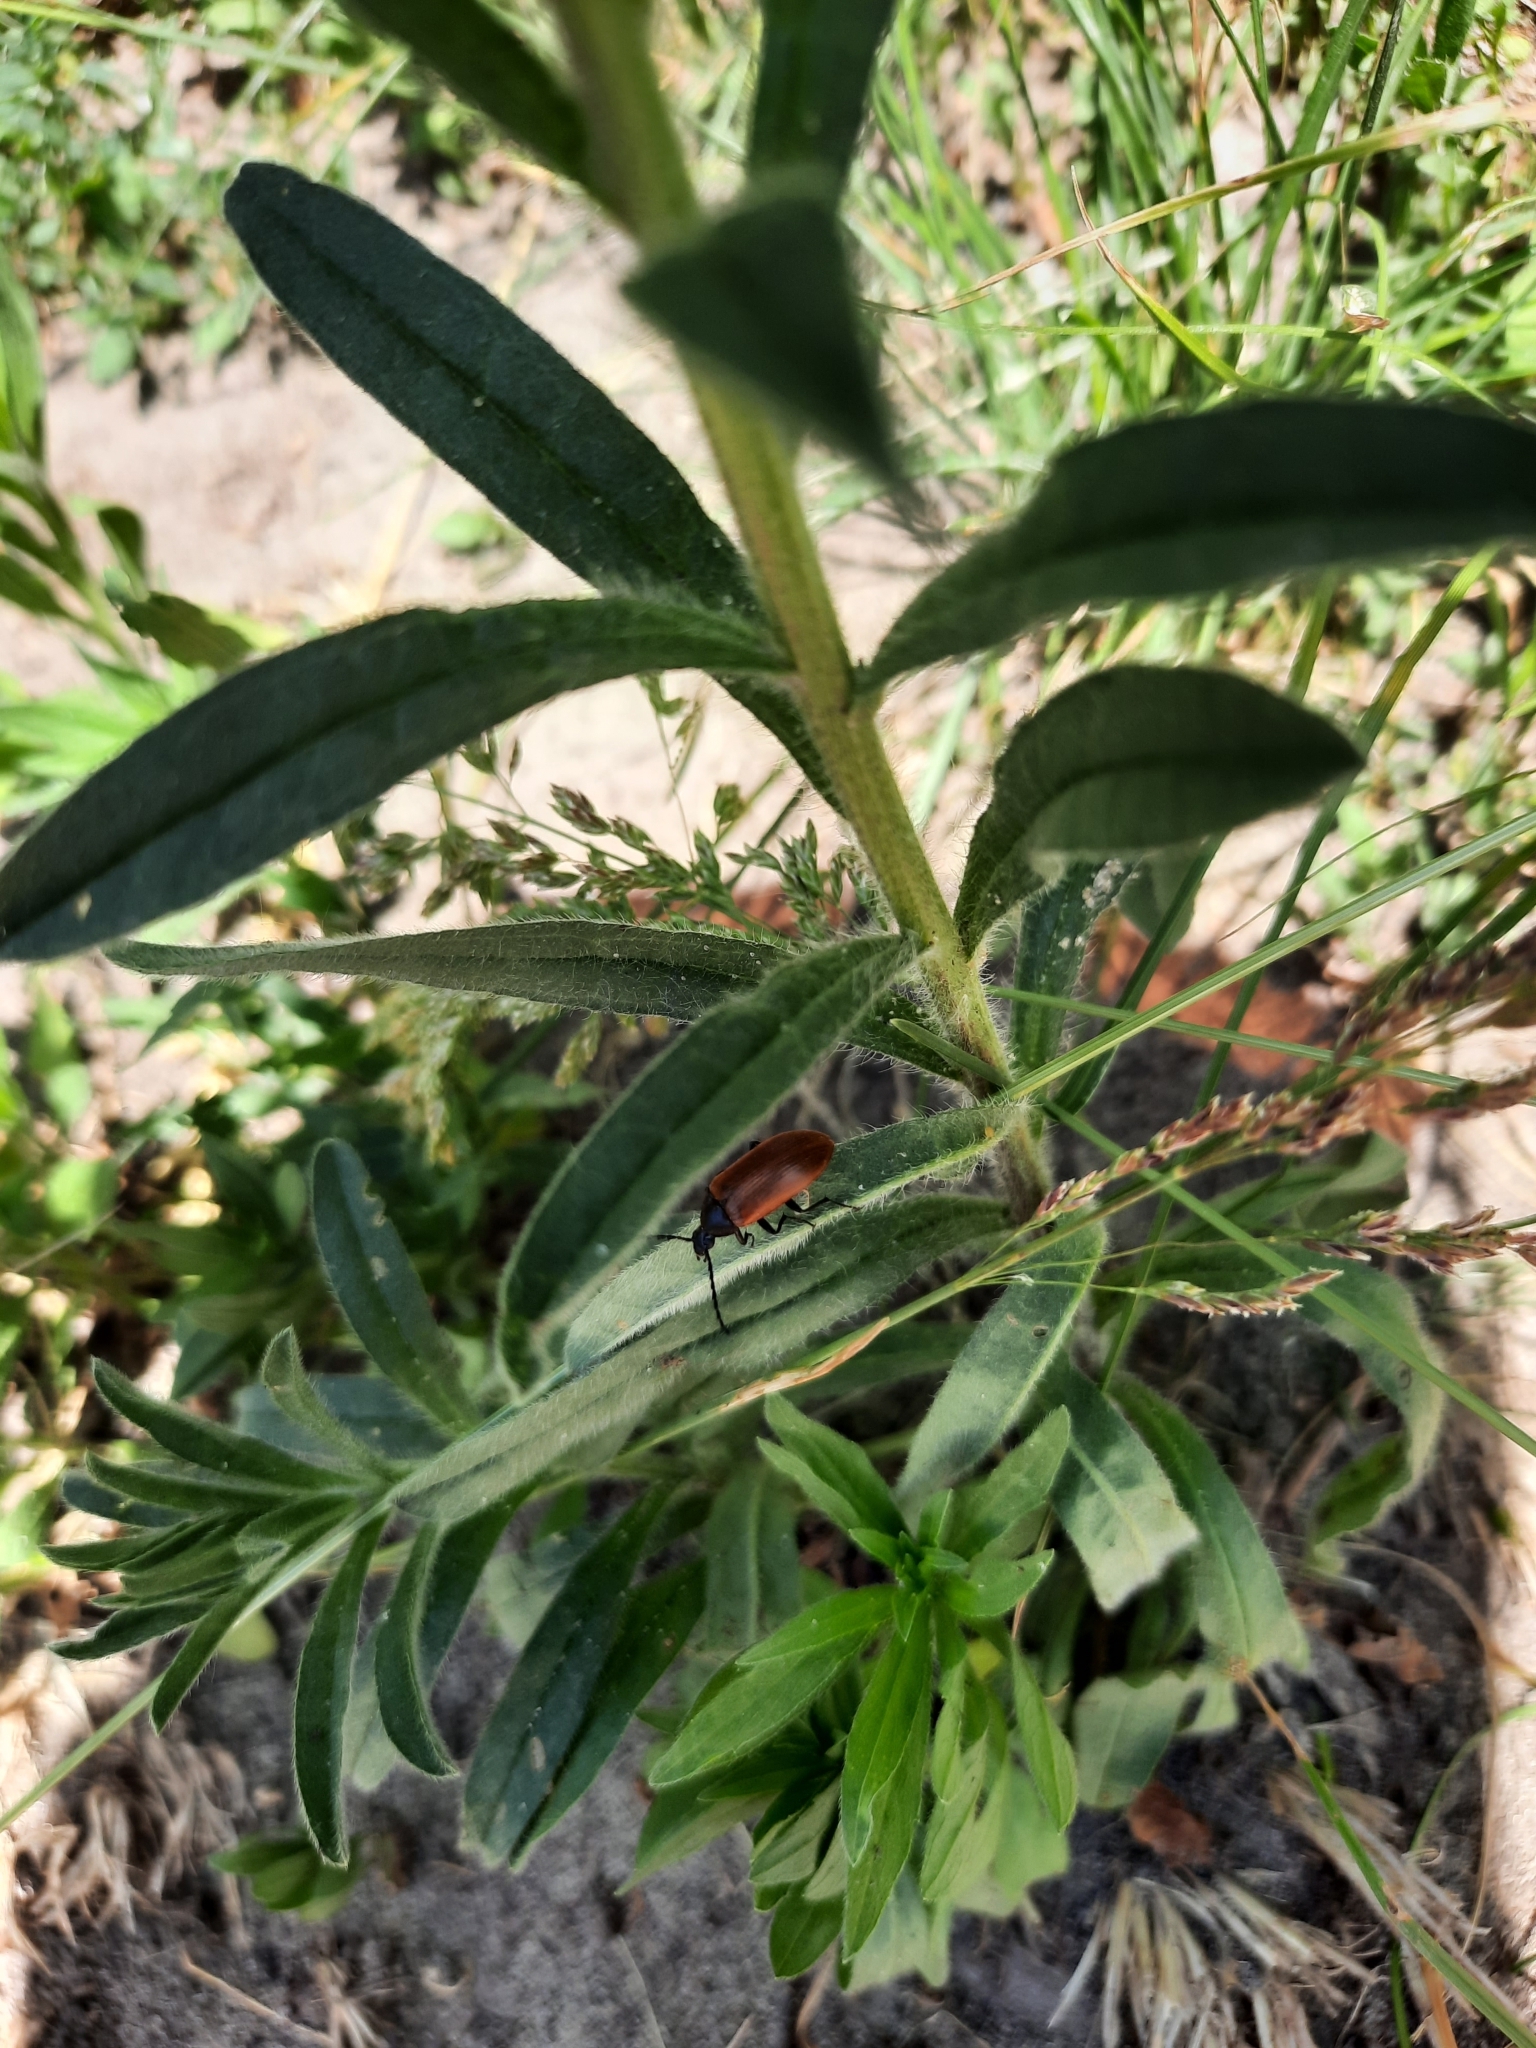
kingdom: Animalia
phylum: Arthropoda
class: Insecta
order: Coleoptera
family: Tenebrionidae
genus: Pseudocistela
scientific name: Pseudocistela ceramboides
